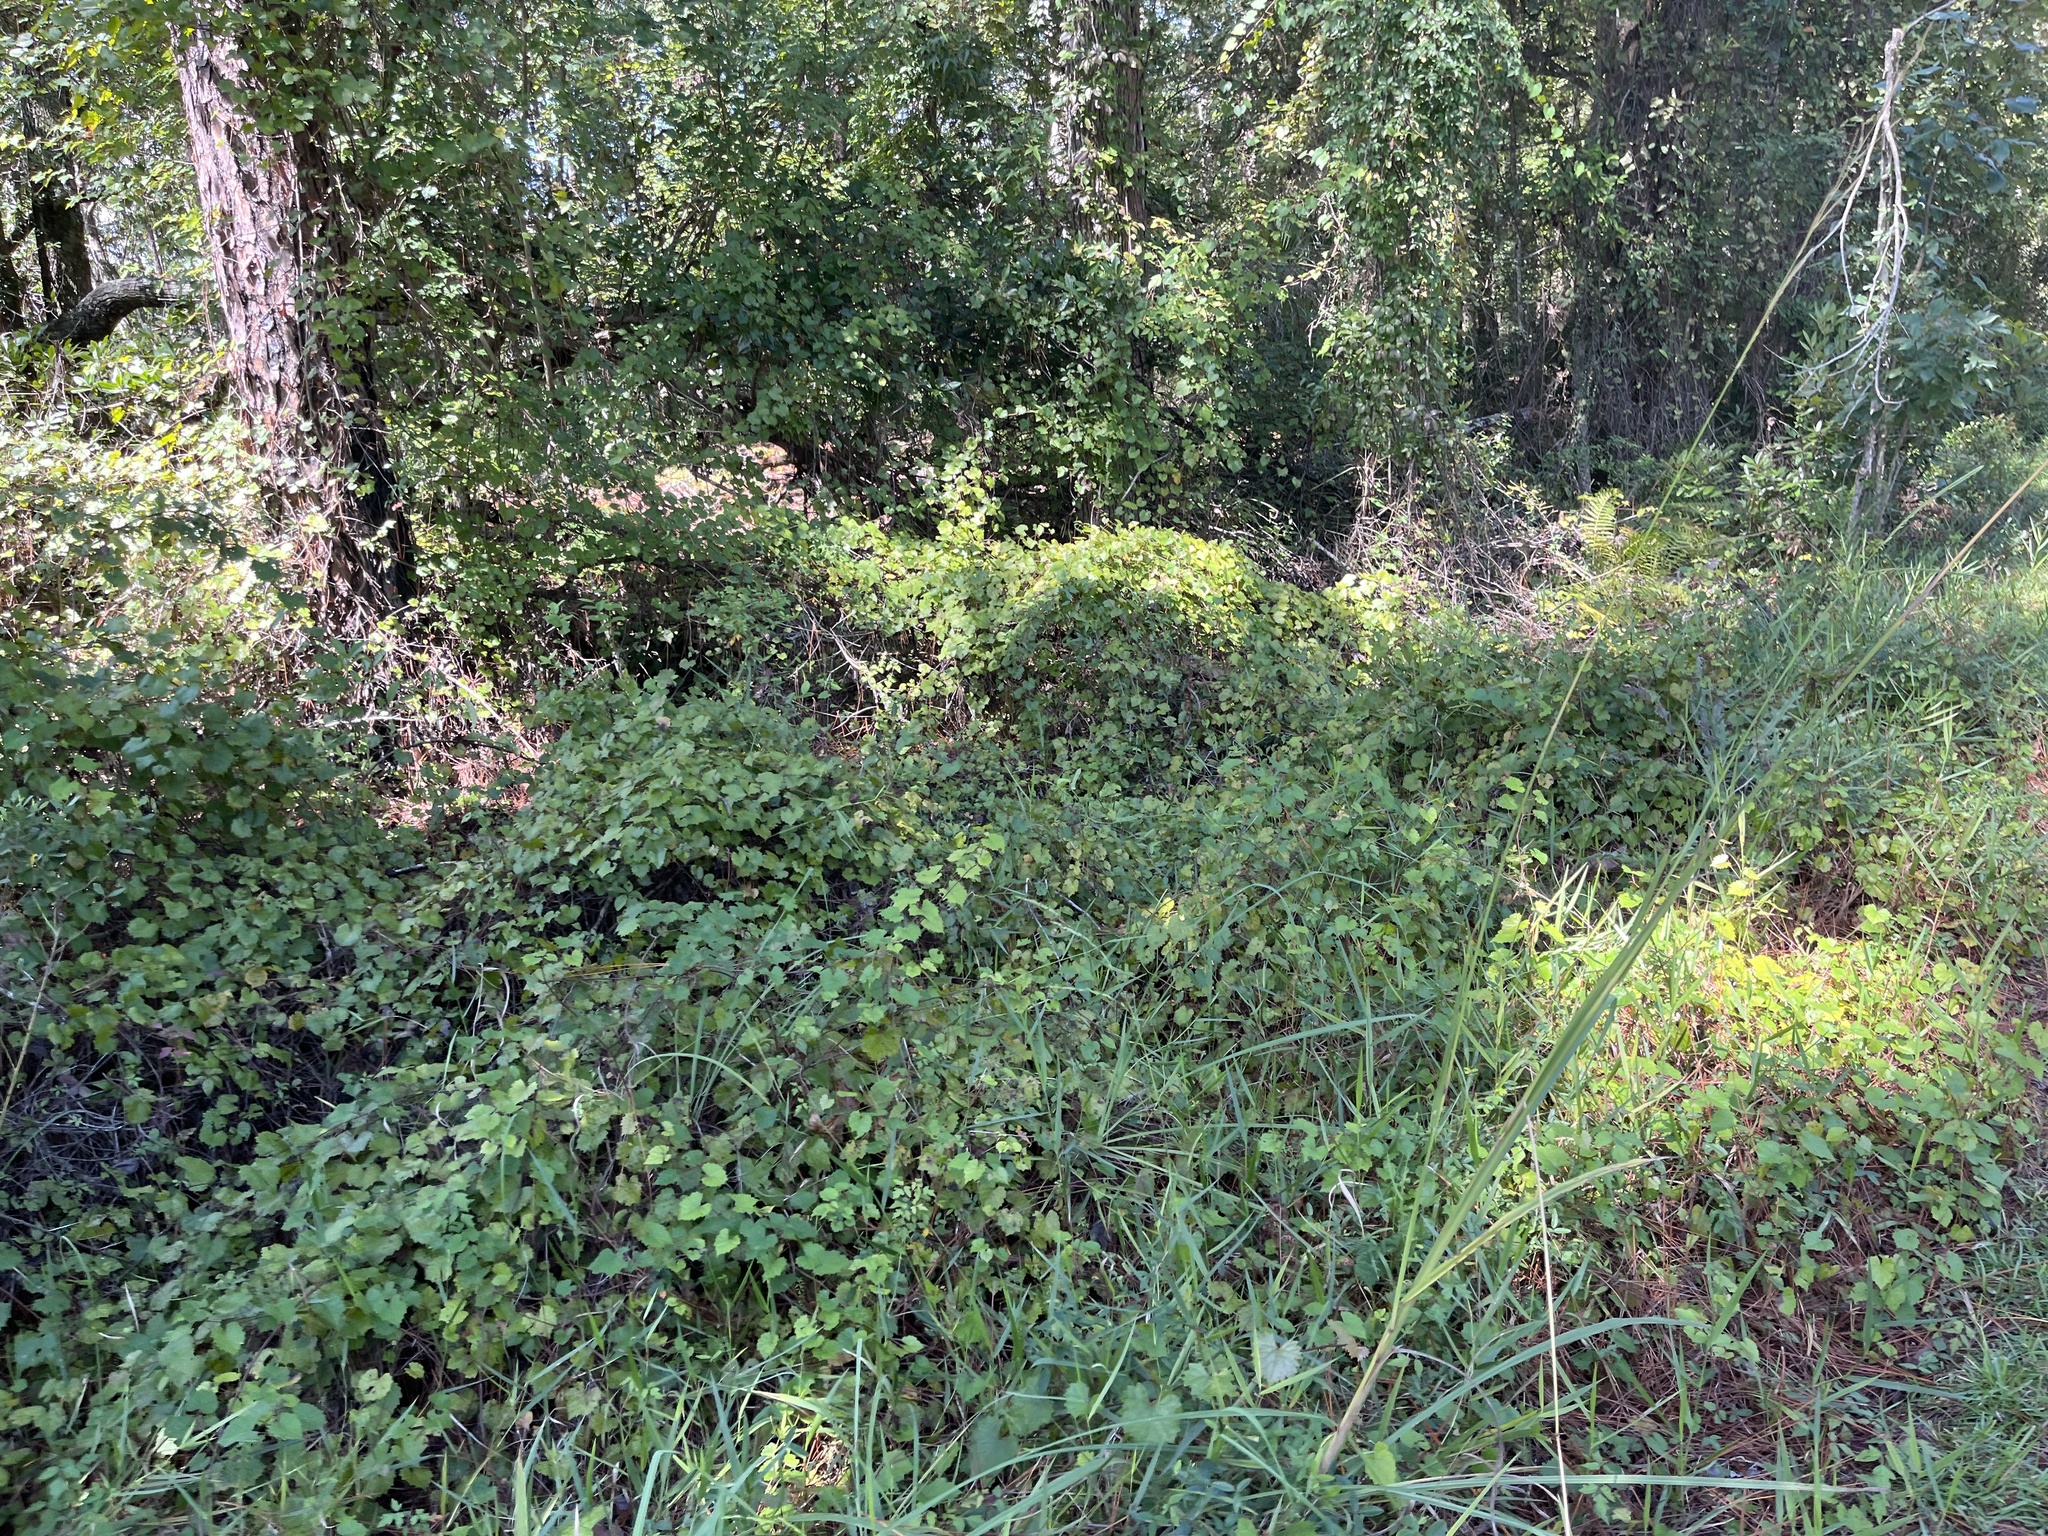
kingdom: Plantae
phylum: Tracheophyta
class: Magnoliopsida
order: Vitales
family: Vitaceae
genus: Vitis
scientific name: Vitis rotundifolia
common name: Muscadine grape
